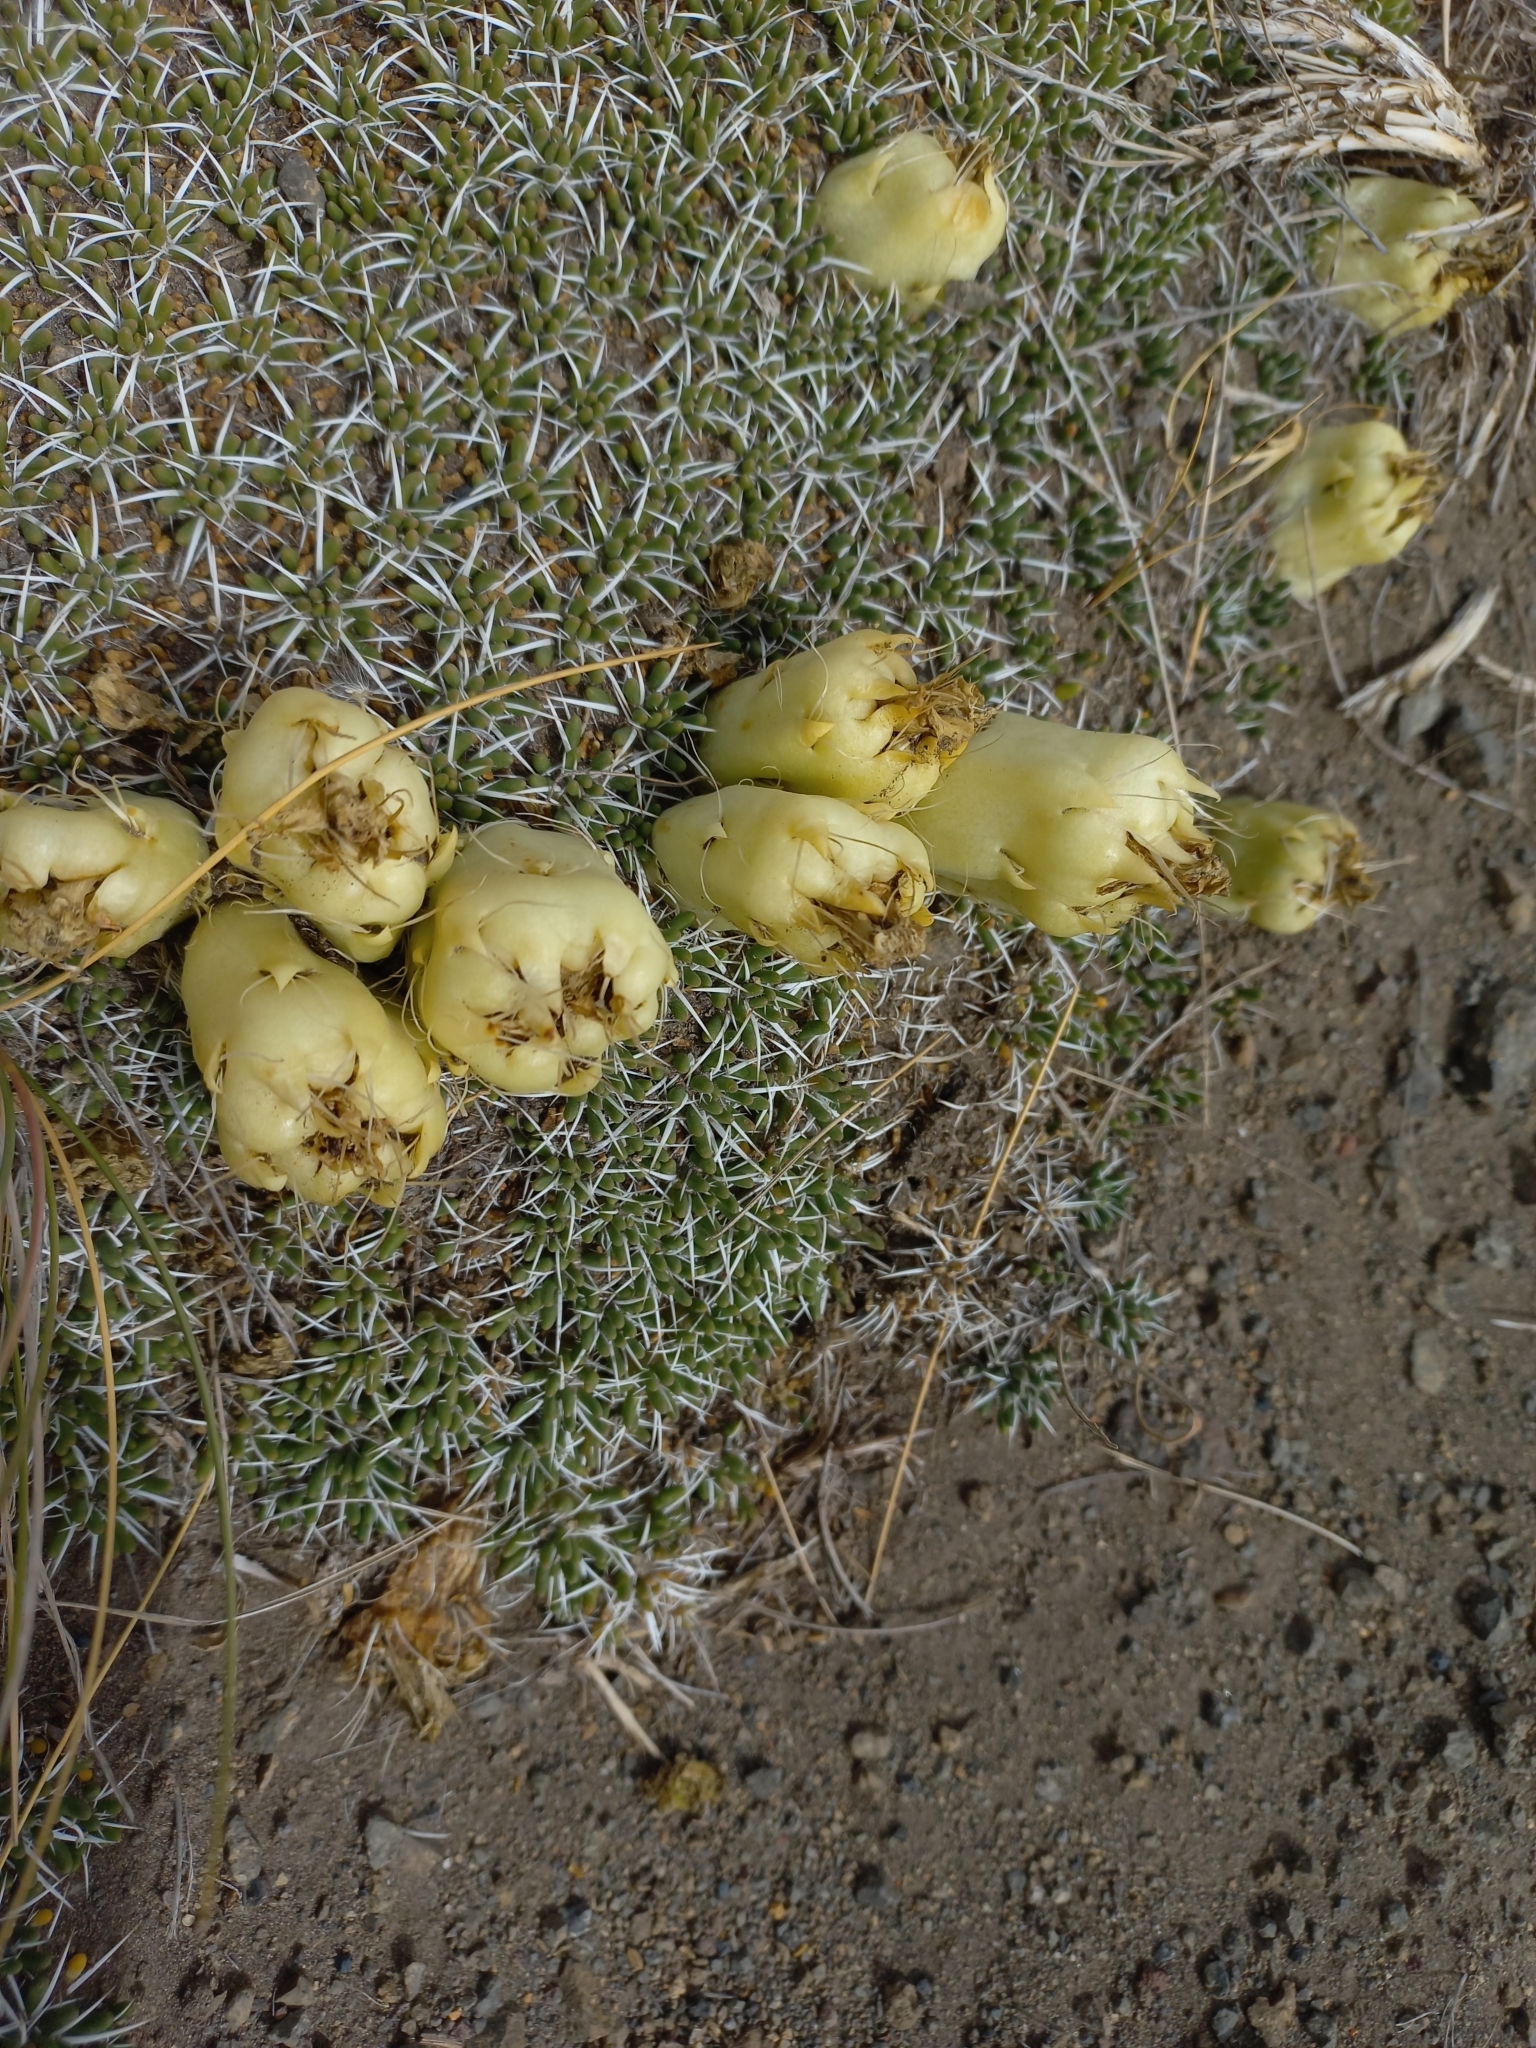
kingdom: Plantae
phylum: Tracheophyta
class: Magnoliopsida
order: Caryophyllales
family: Cactaceae
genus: Maihuenia
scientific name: Maihuenia poeppigii
